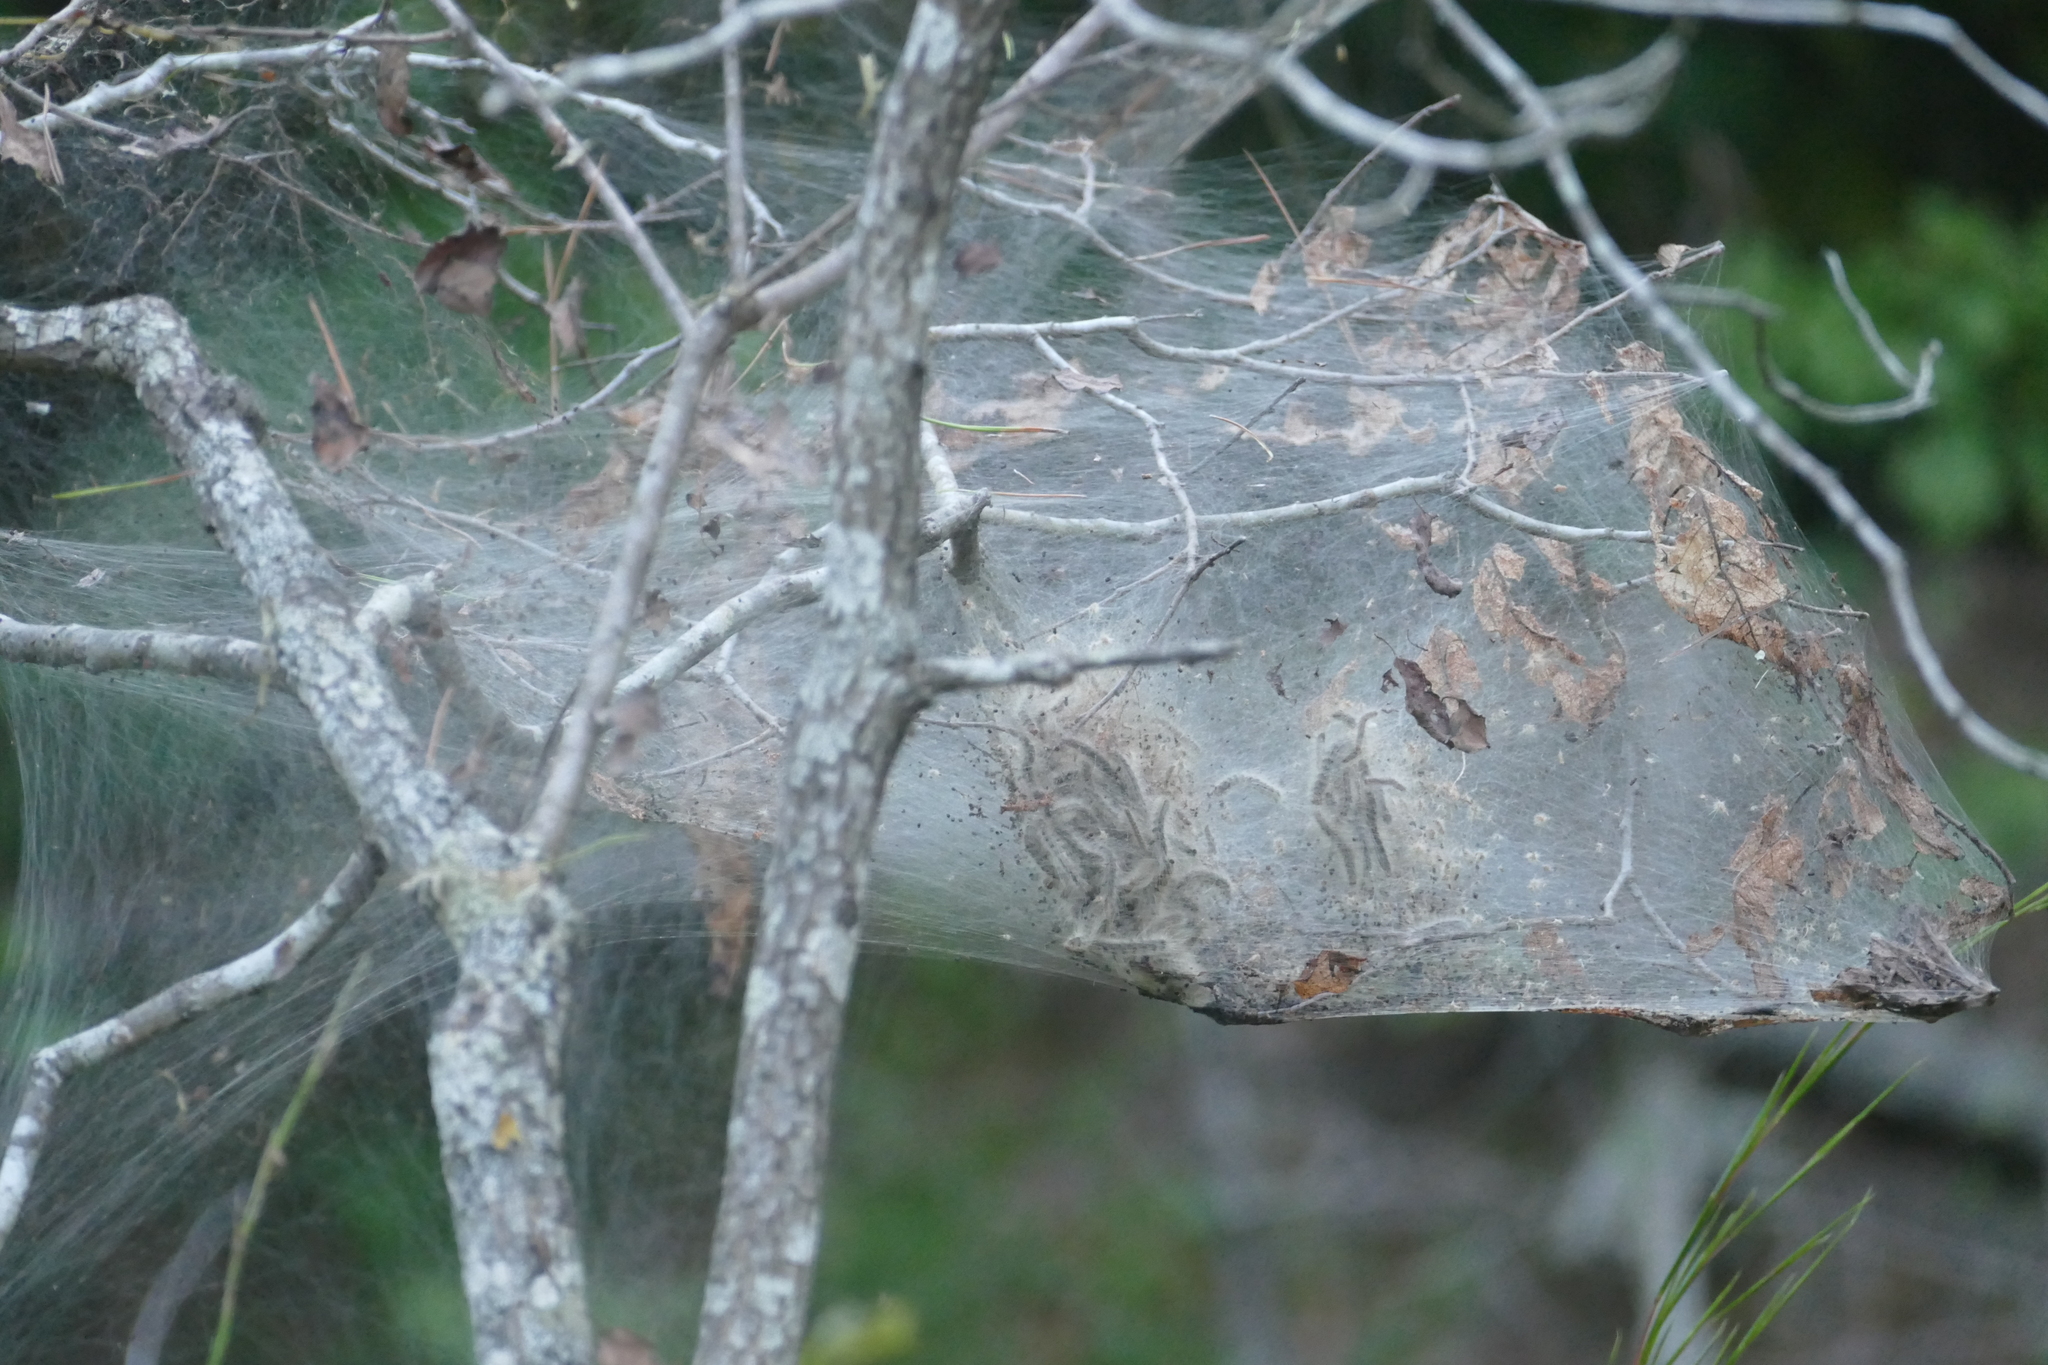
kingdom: Animalia
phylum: Arthropoda
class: Insecta
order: Lepidoptera
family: Erebidae
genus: Hyphantria
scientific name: Hyphantria cunea
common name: American white moth
